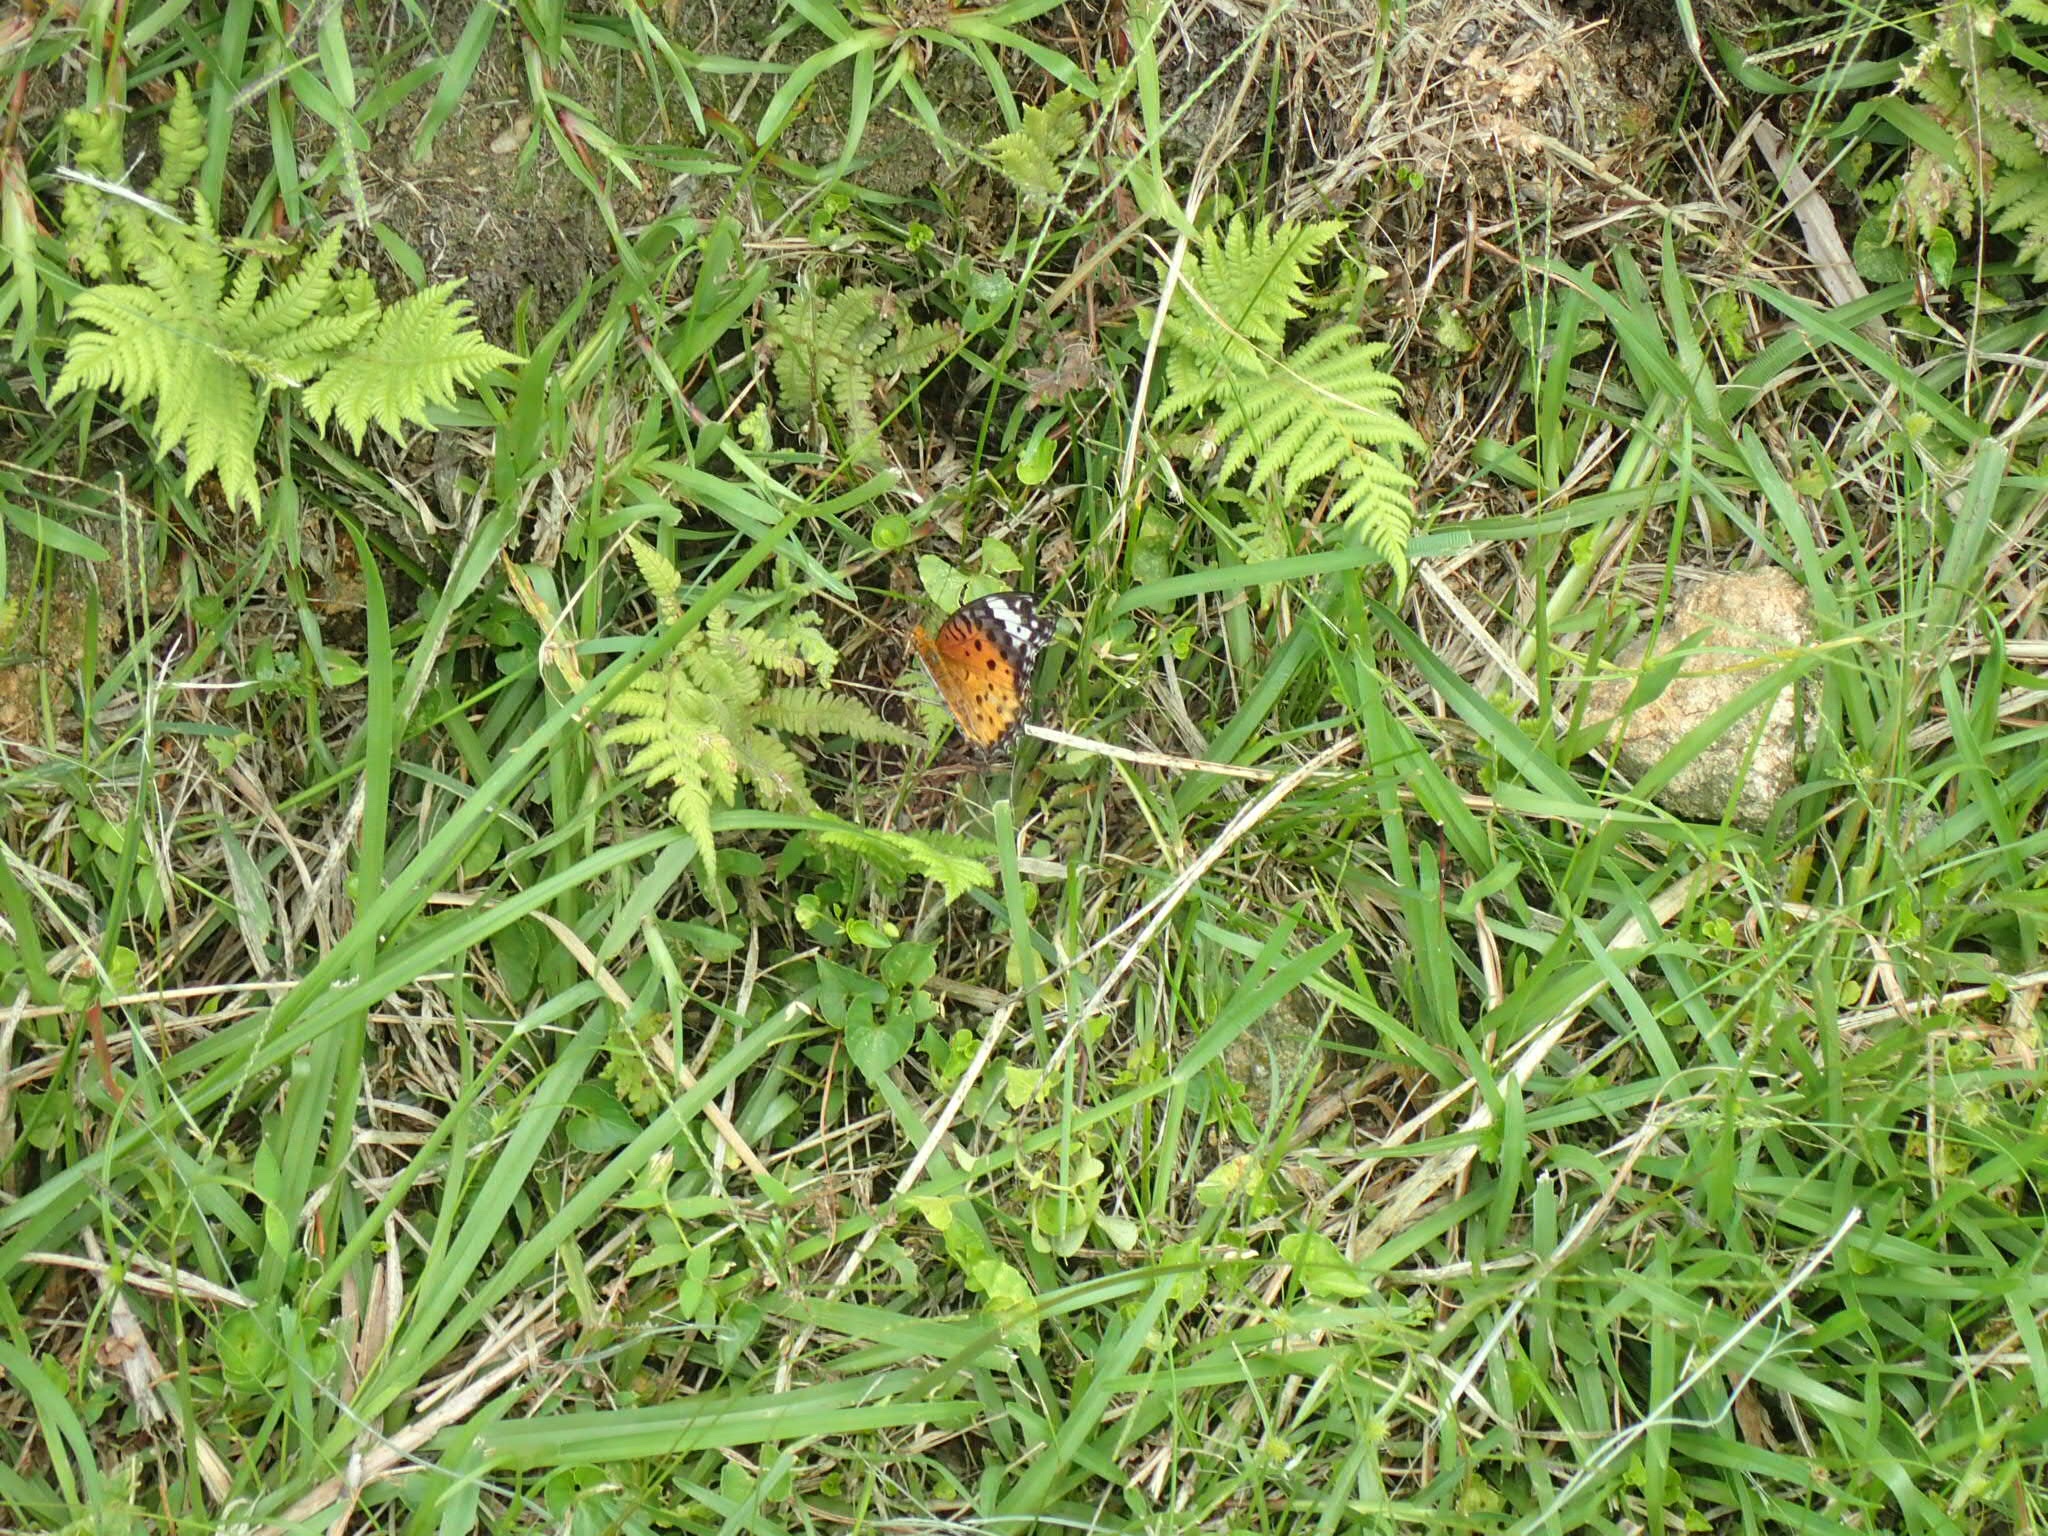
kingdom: Animalia
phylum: Arthropoda
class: Insecta
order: Lepidoptera
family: Nymphalidae
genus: Argynnis
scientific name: Argynnis hyperbius
